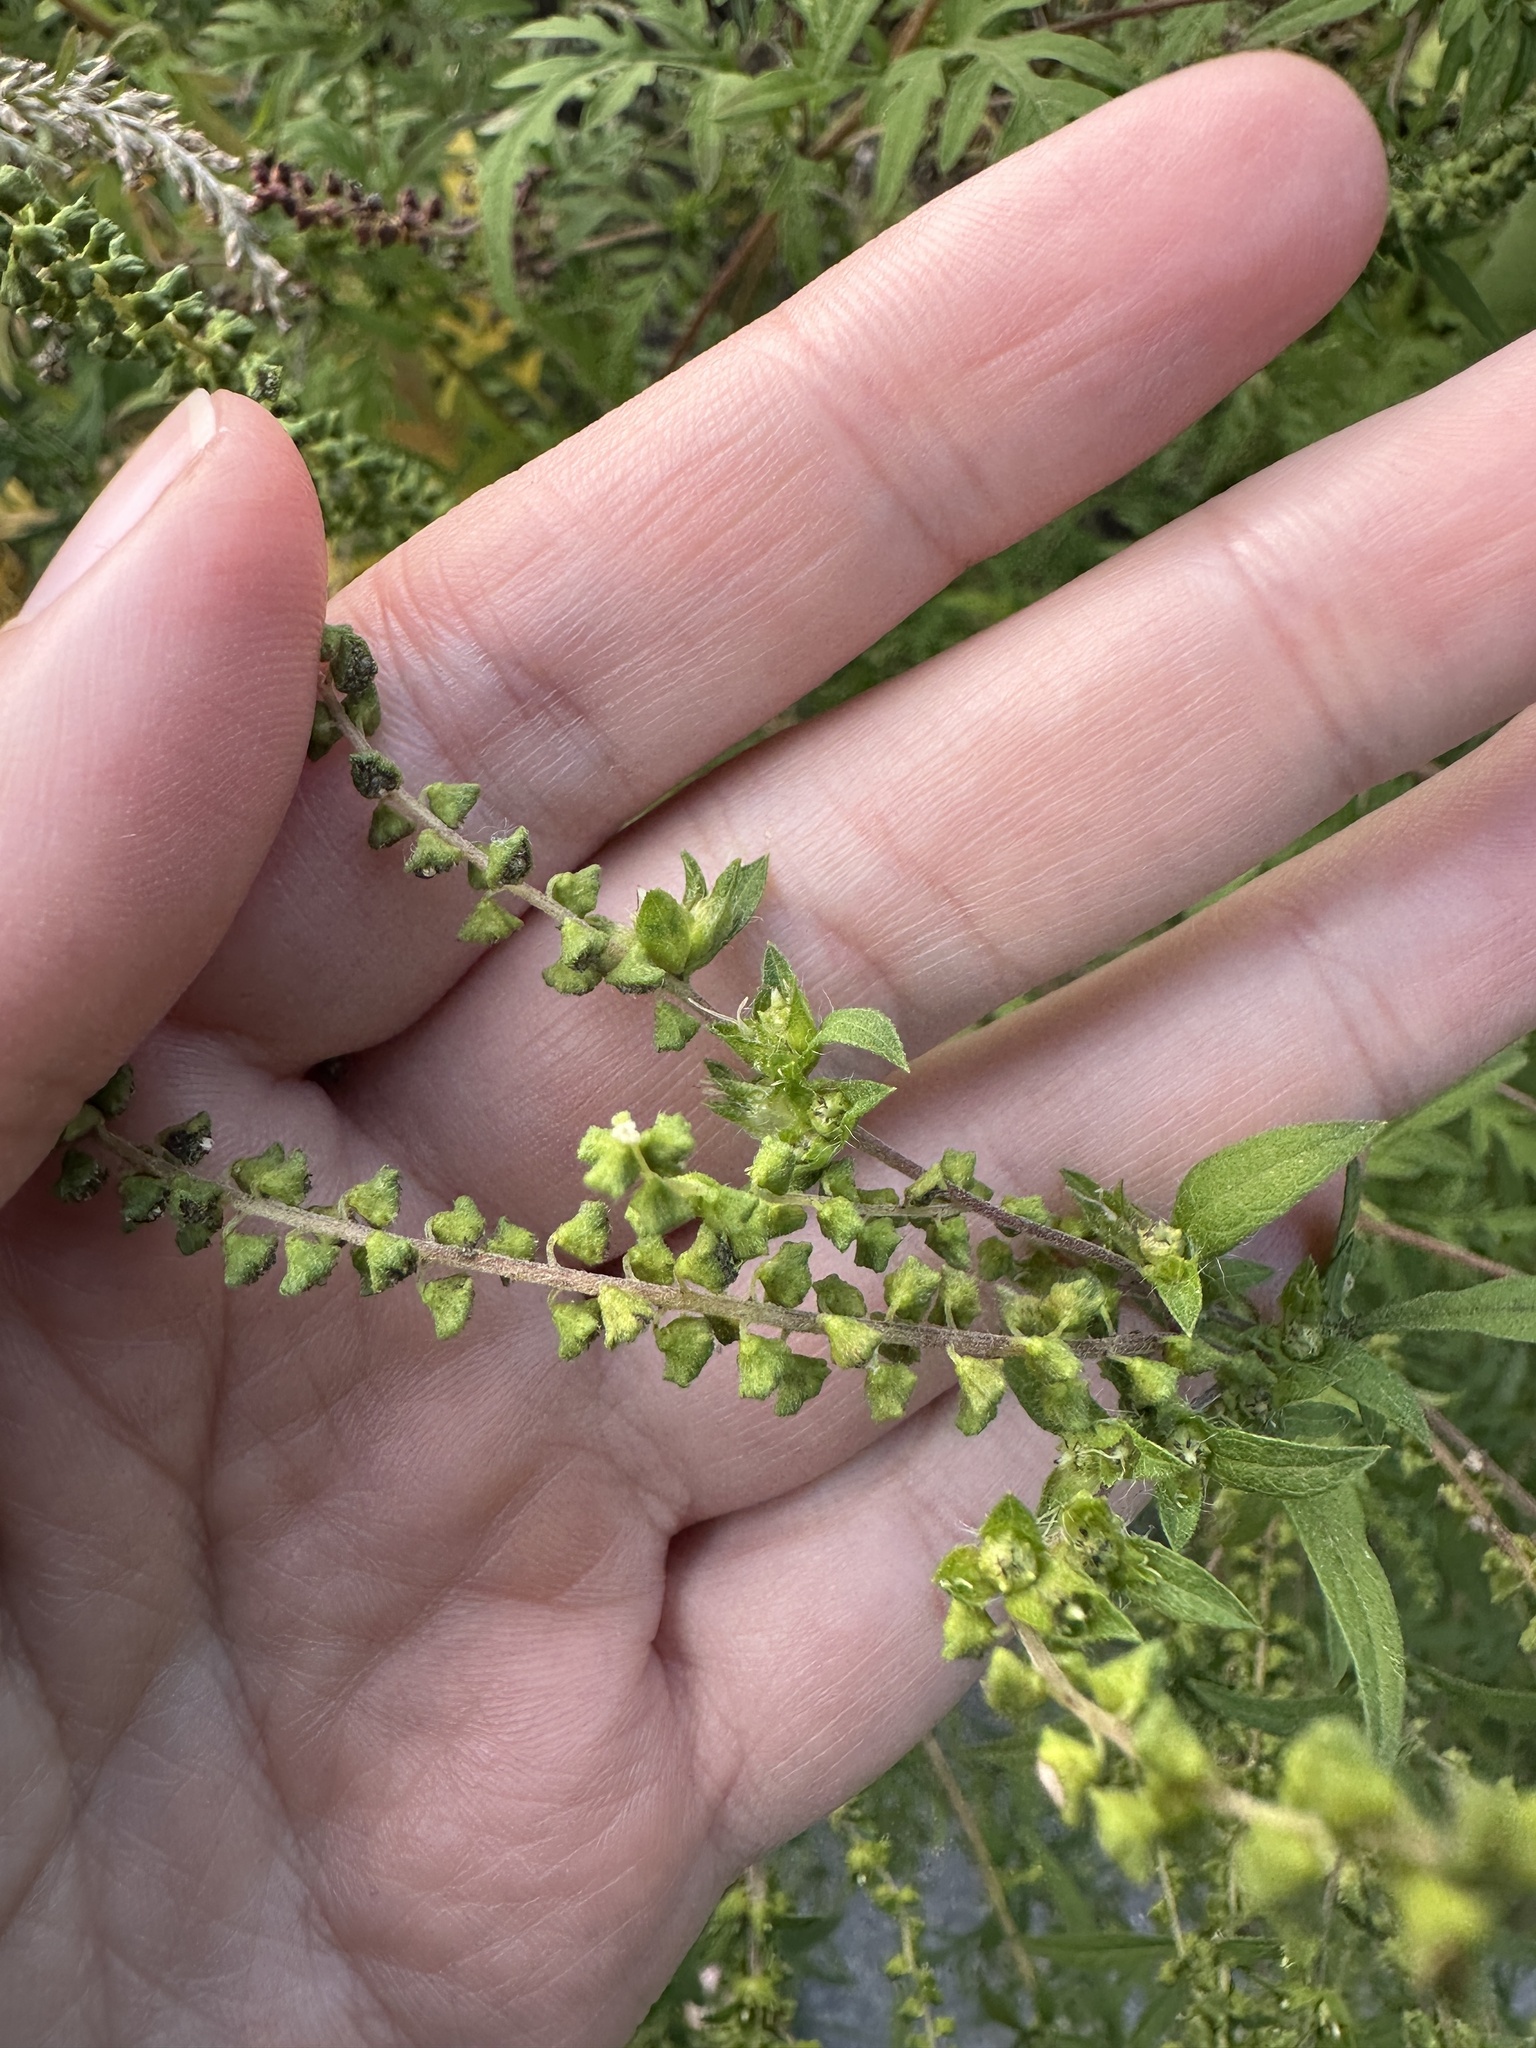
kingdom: Plantae
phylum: Tracheophyta
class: Magnoliopsida
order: Asterales
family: Asteraceae
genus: Ambrosia
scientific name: Ambrosia artemisiifolia
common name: Annual ragweed
